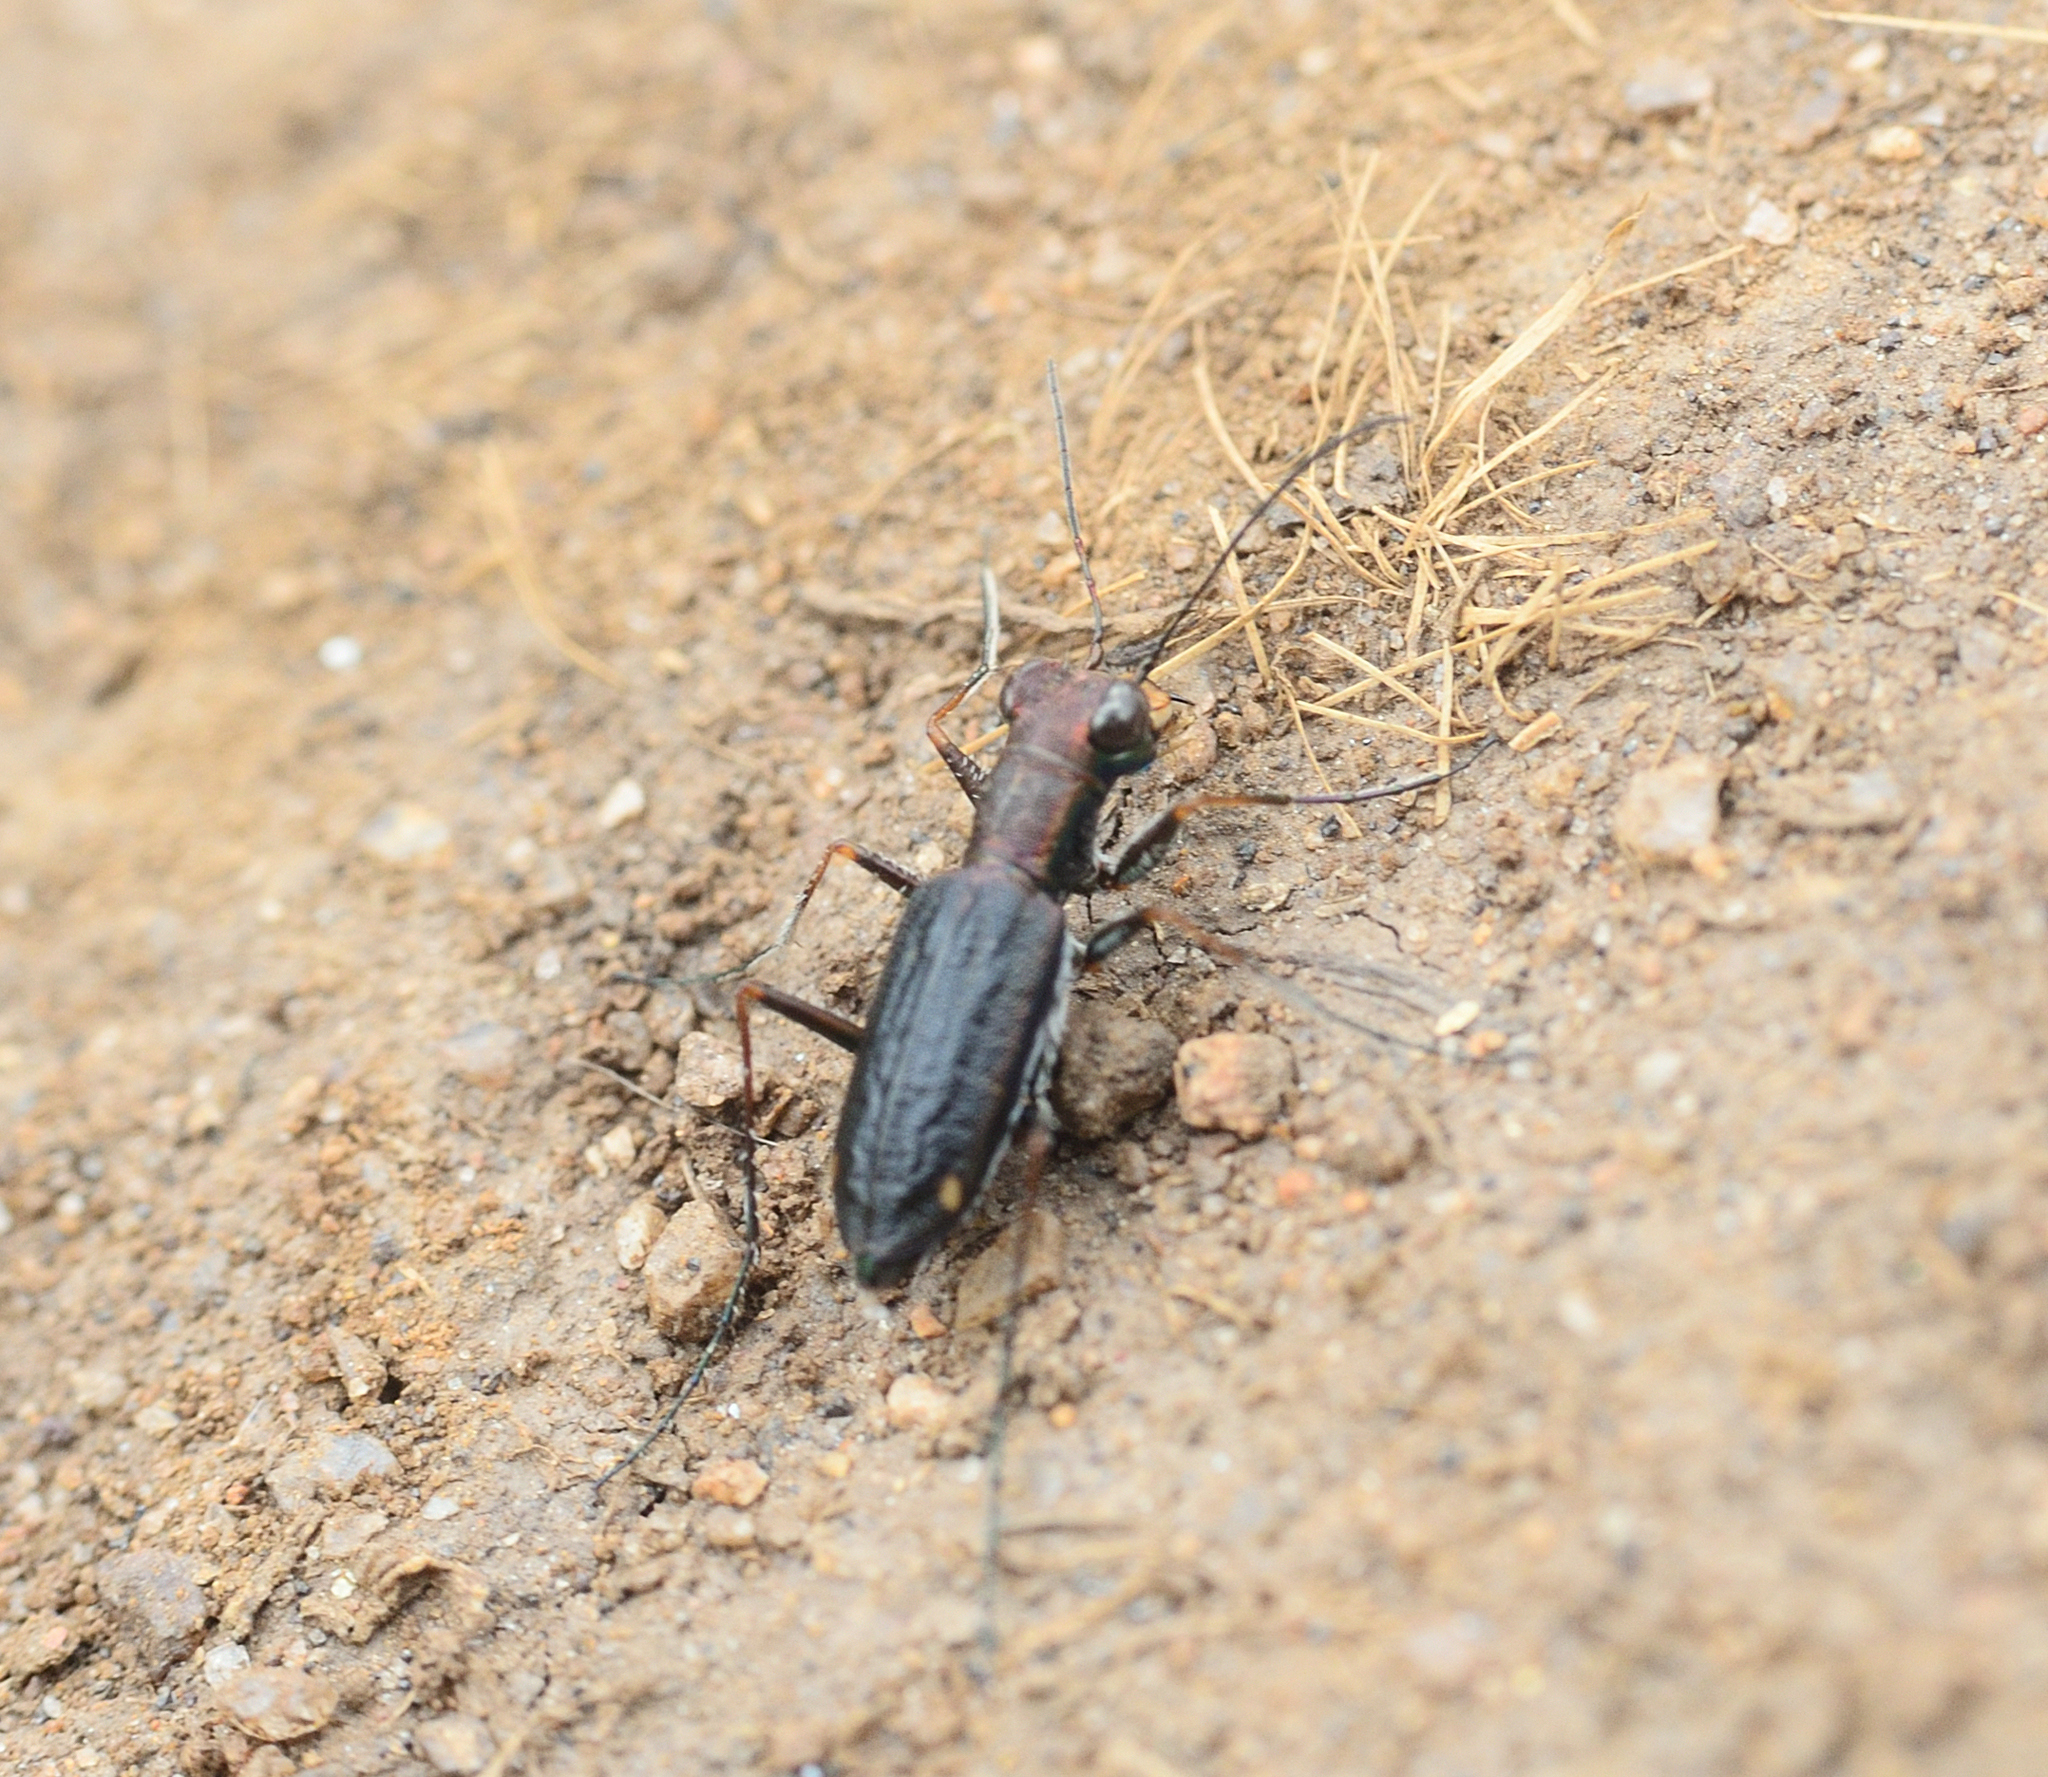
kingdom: Animalia
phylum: Arthropoda
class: Insecta
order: Coleoptera
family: Carabidae
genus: Jansenia
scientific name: Jansenia dasiodes
